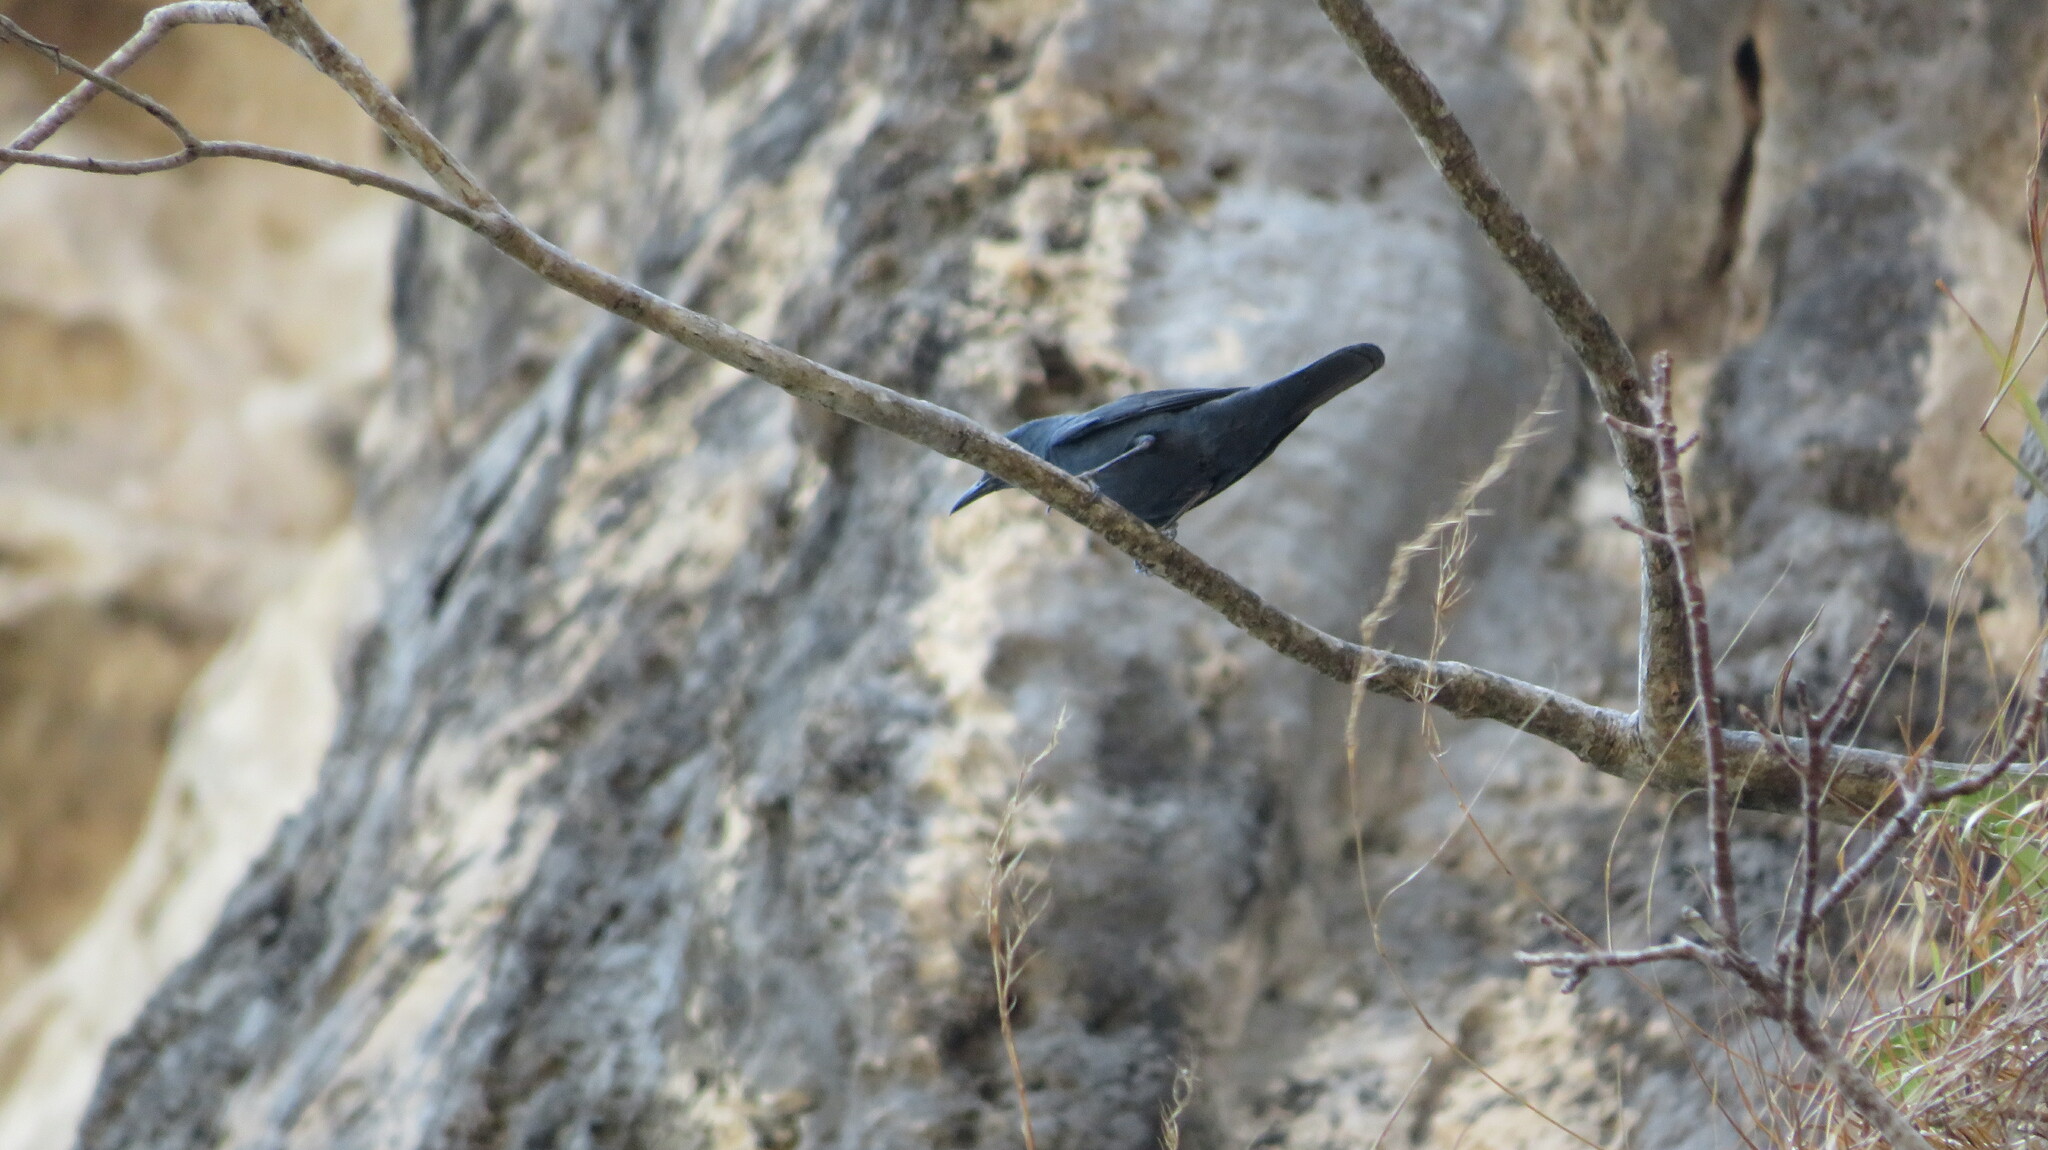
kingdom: Animalia
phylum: Chordata
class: Aves
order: Passeriformes
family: Muscicapidae
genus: Monticola
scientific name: Monticola solitarius
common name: Blue rock thrush
